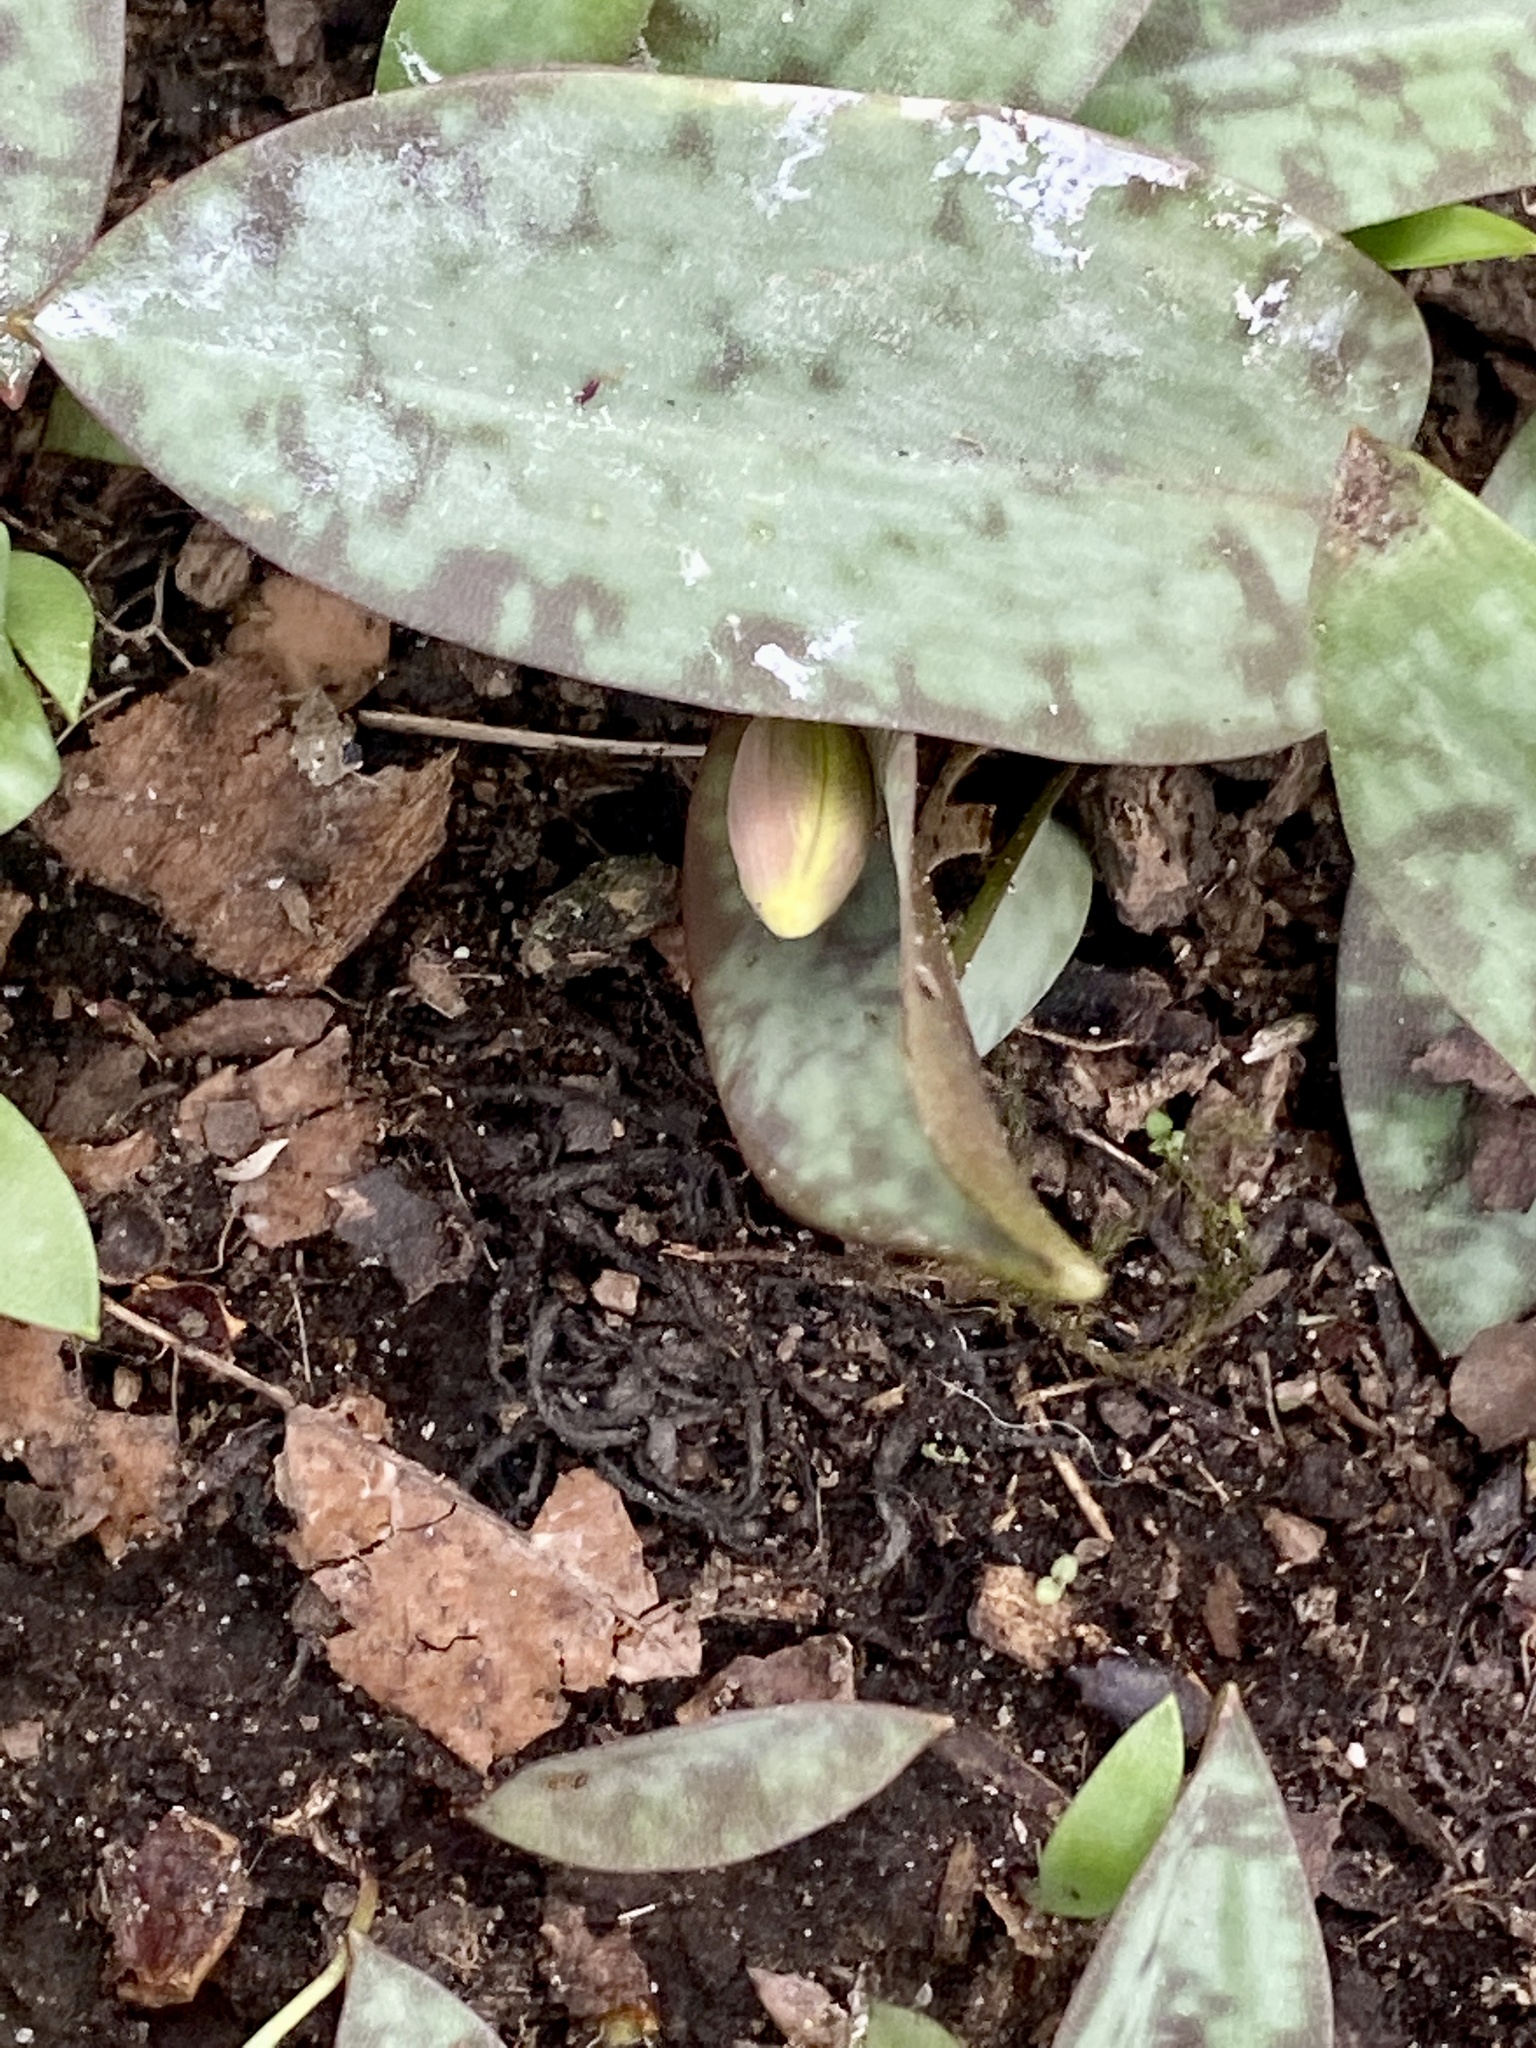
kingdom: Plantae
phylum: Tracheophyta
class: Liliopsida
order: Liliales
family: Liliaceae
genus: Erythronium
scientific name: Erythronium americanum
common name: Yellow adder's-tongue
